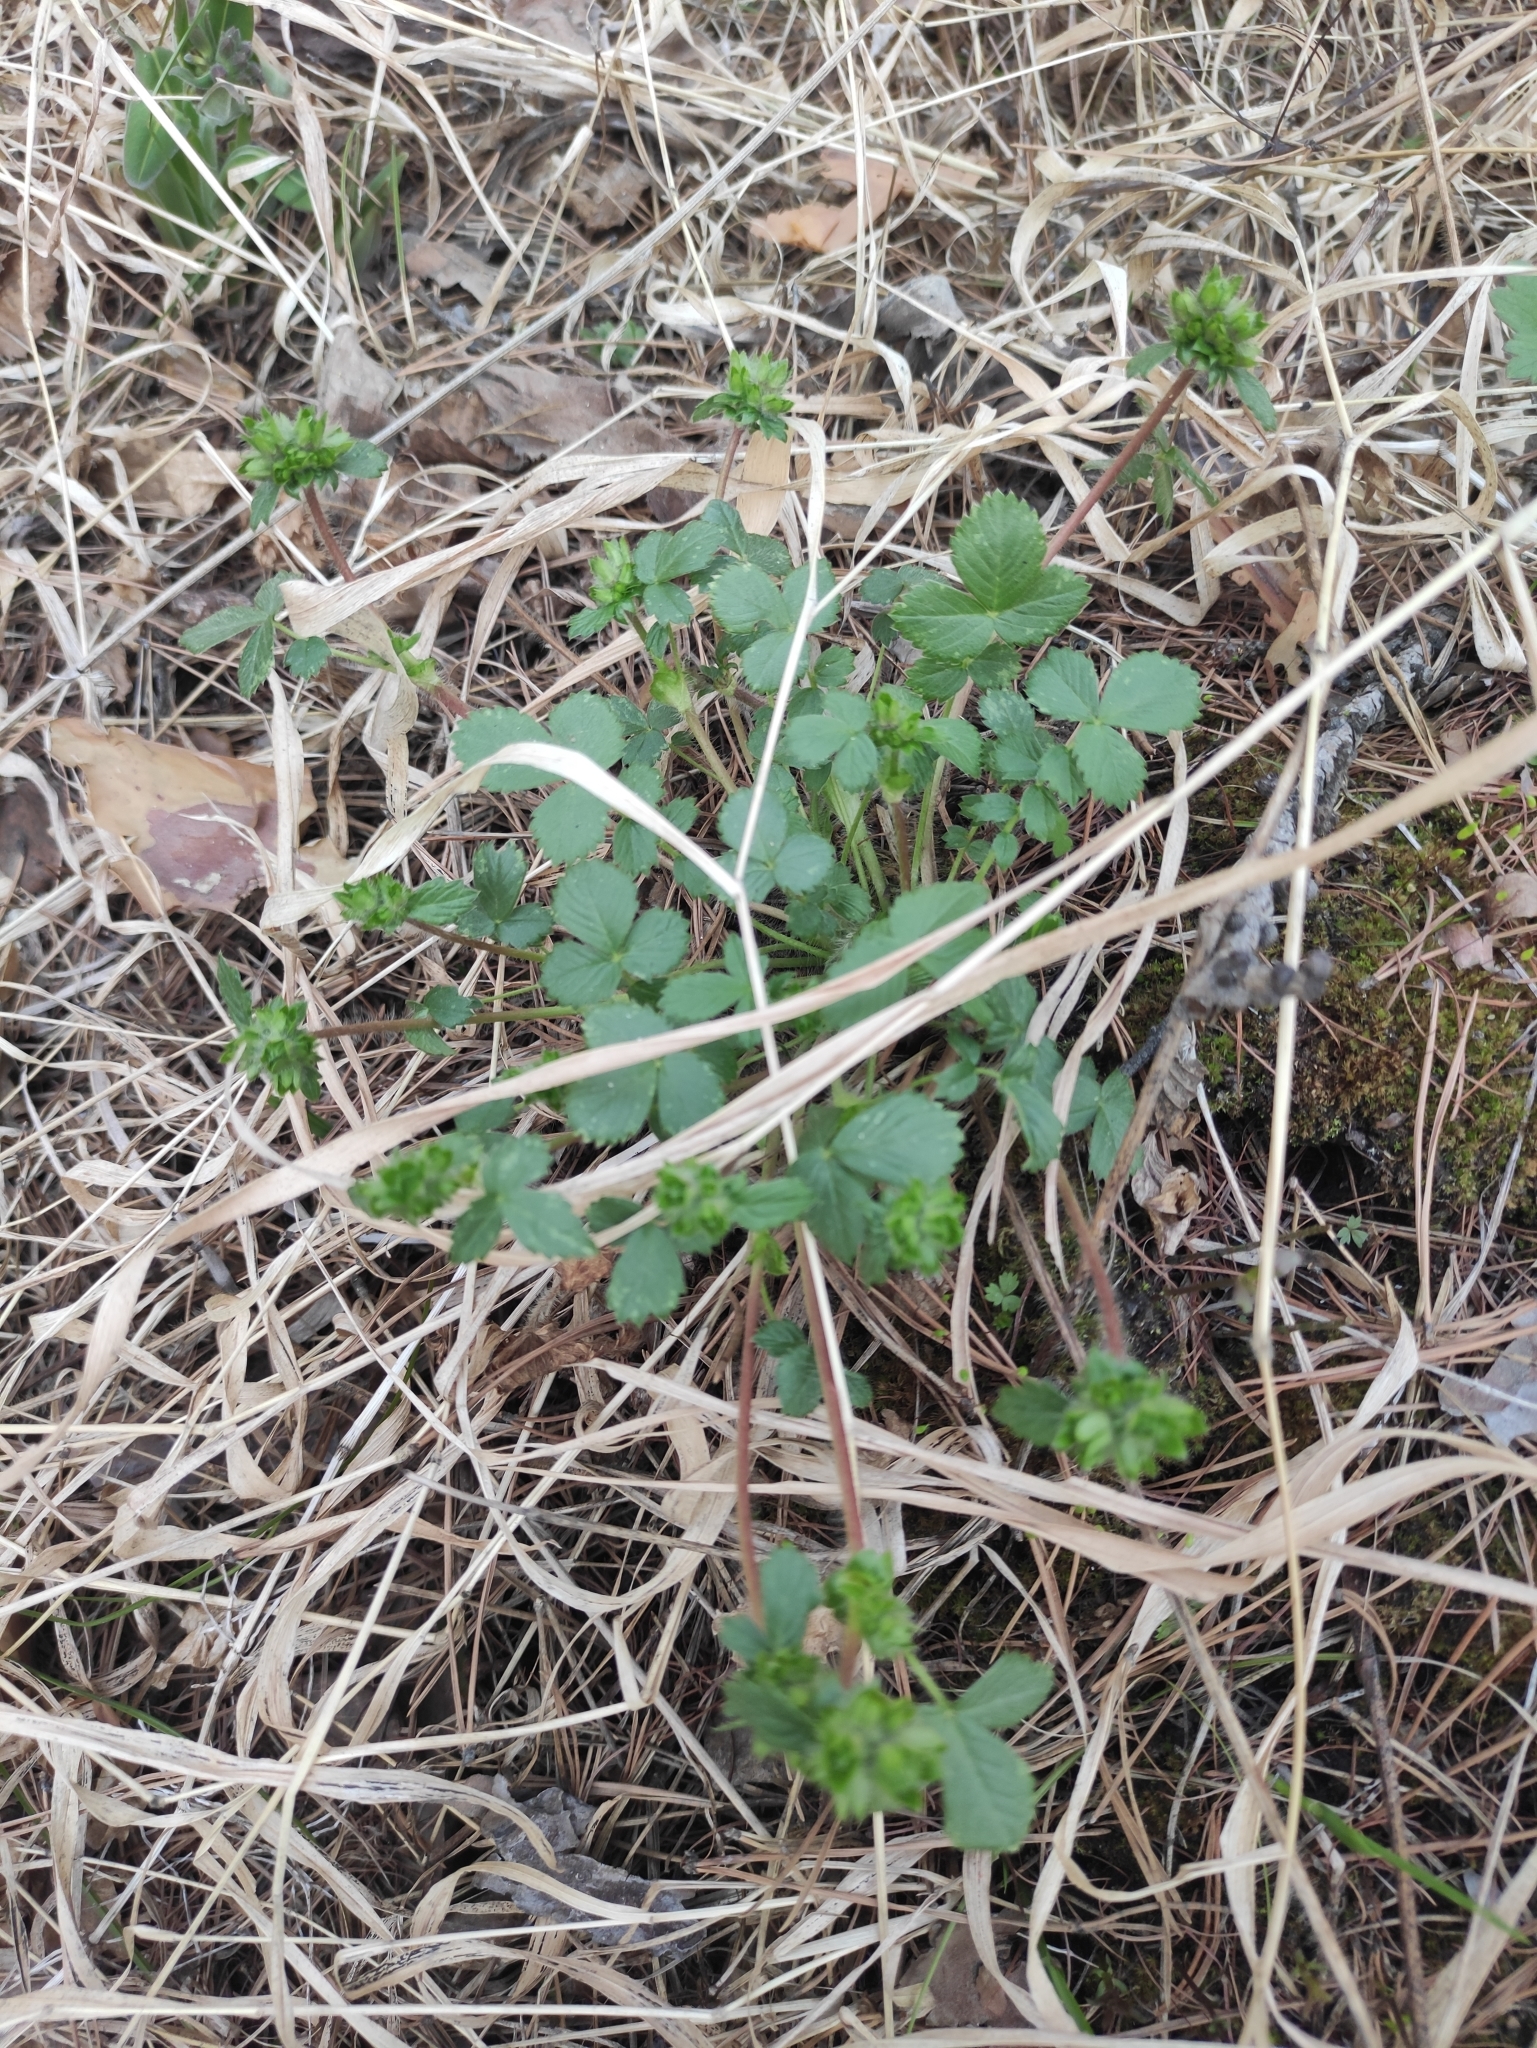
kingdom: Plantae
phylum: Tracheophyta
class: Magnoliopsida
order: Rosales
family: Rosaceae
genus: Potentilla
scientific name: Potentilla fragarioides
